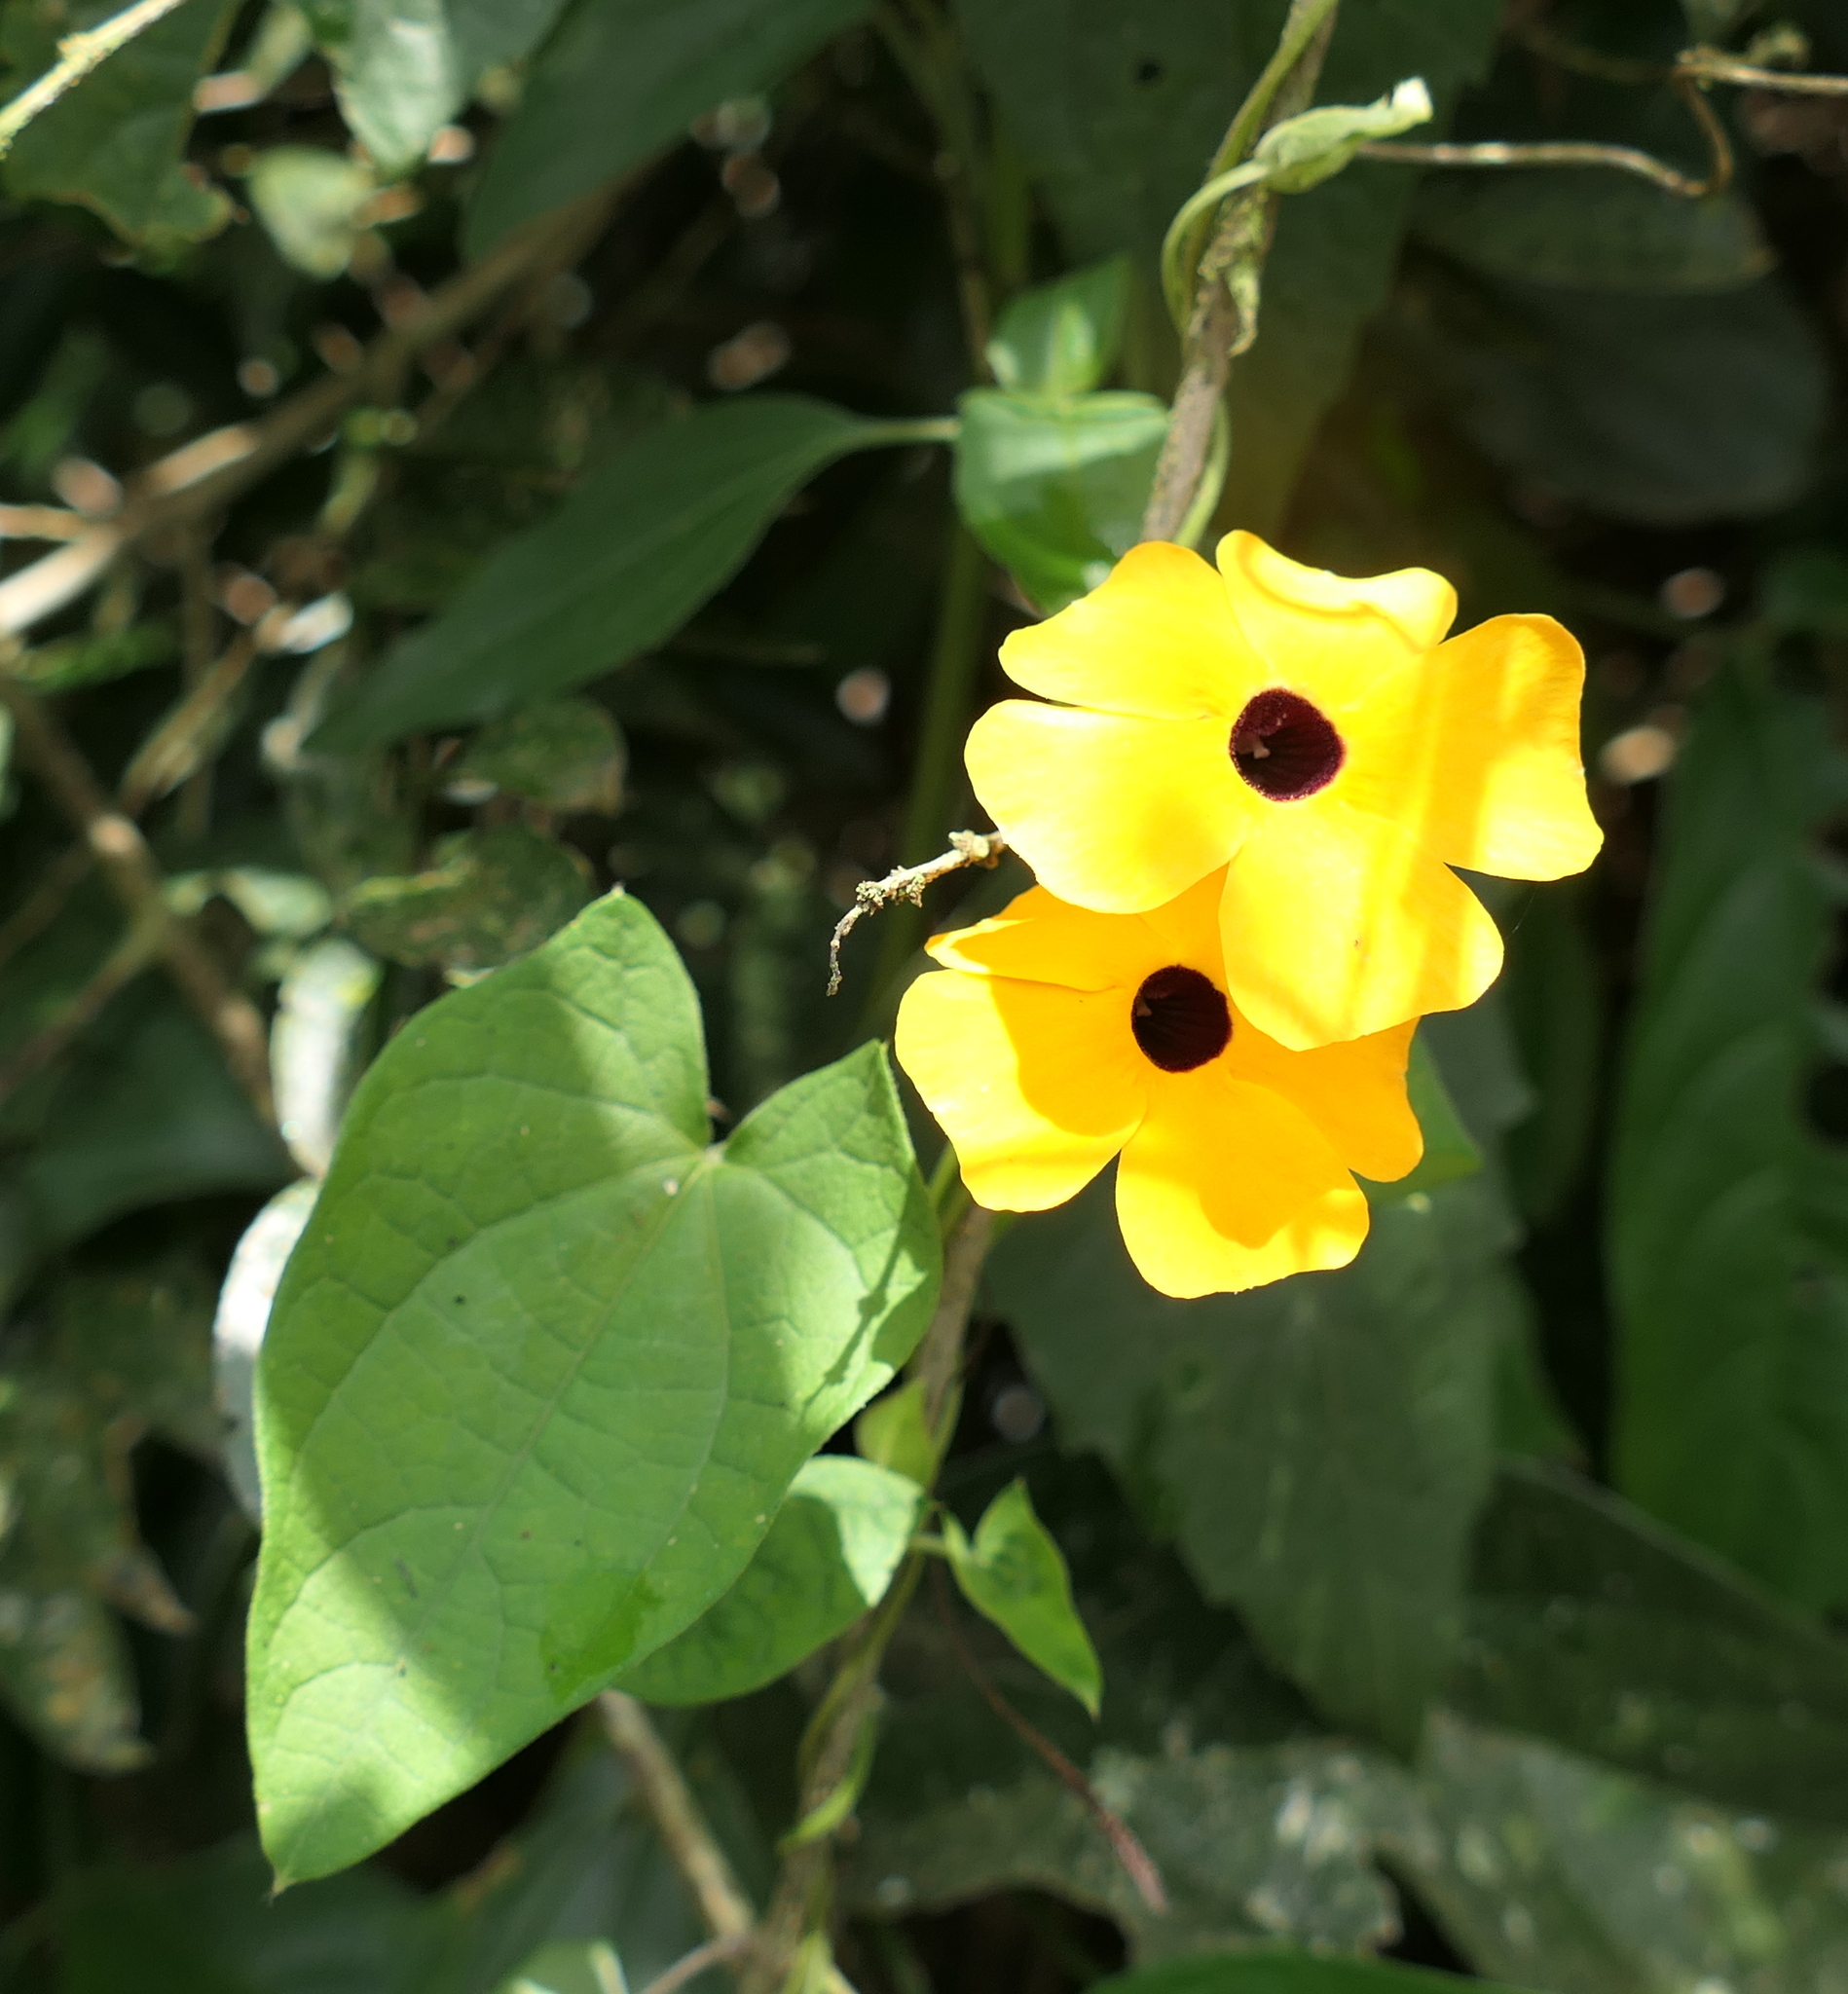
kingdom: Plantae
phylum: Tracheophyta
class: Magnoliopsida
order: Lamiales
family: Acanthaceae
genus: Thunbergia
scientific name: Thunbergia alata
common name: Blackeyed susan vine
